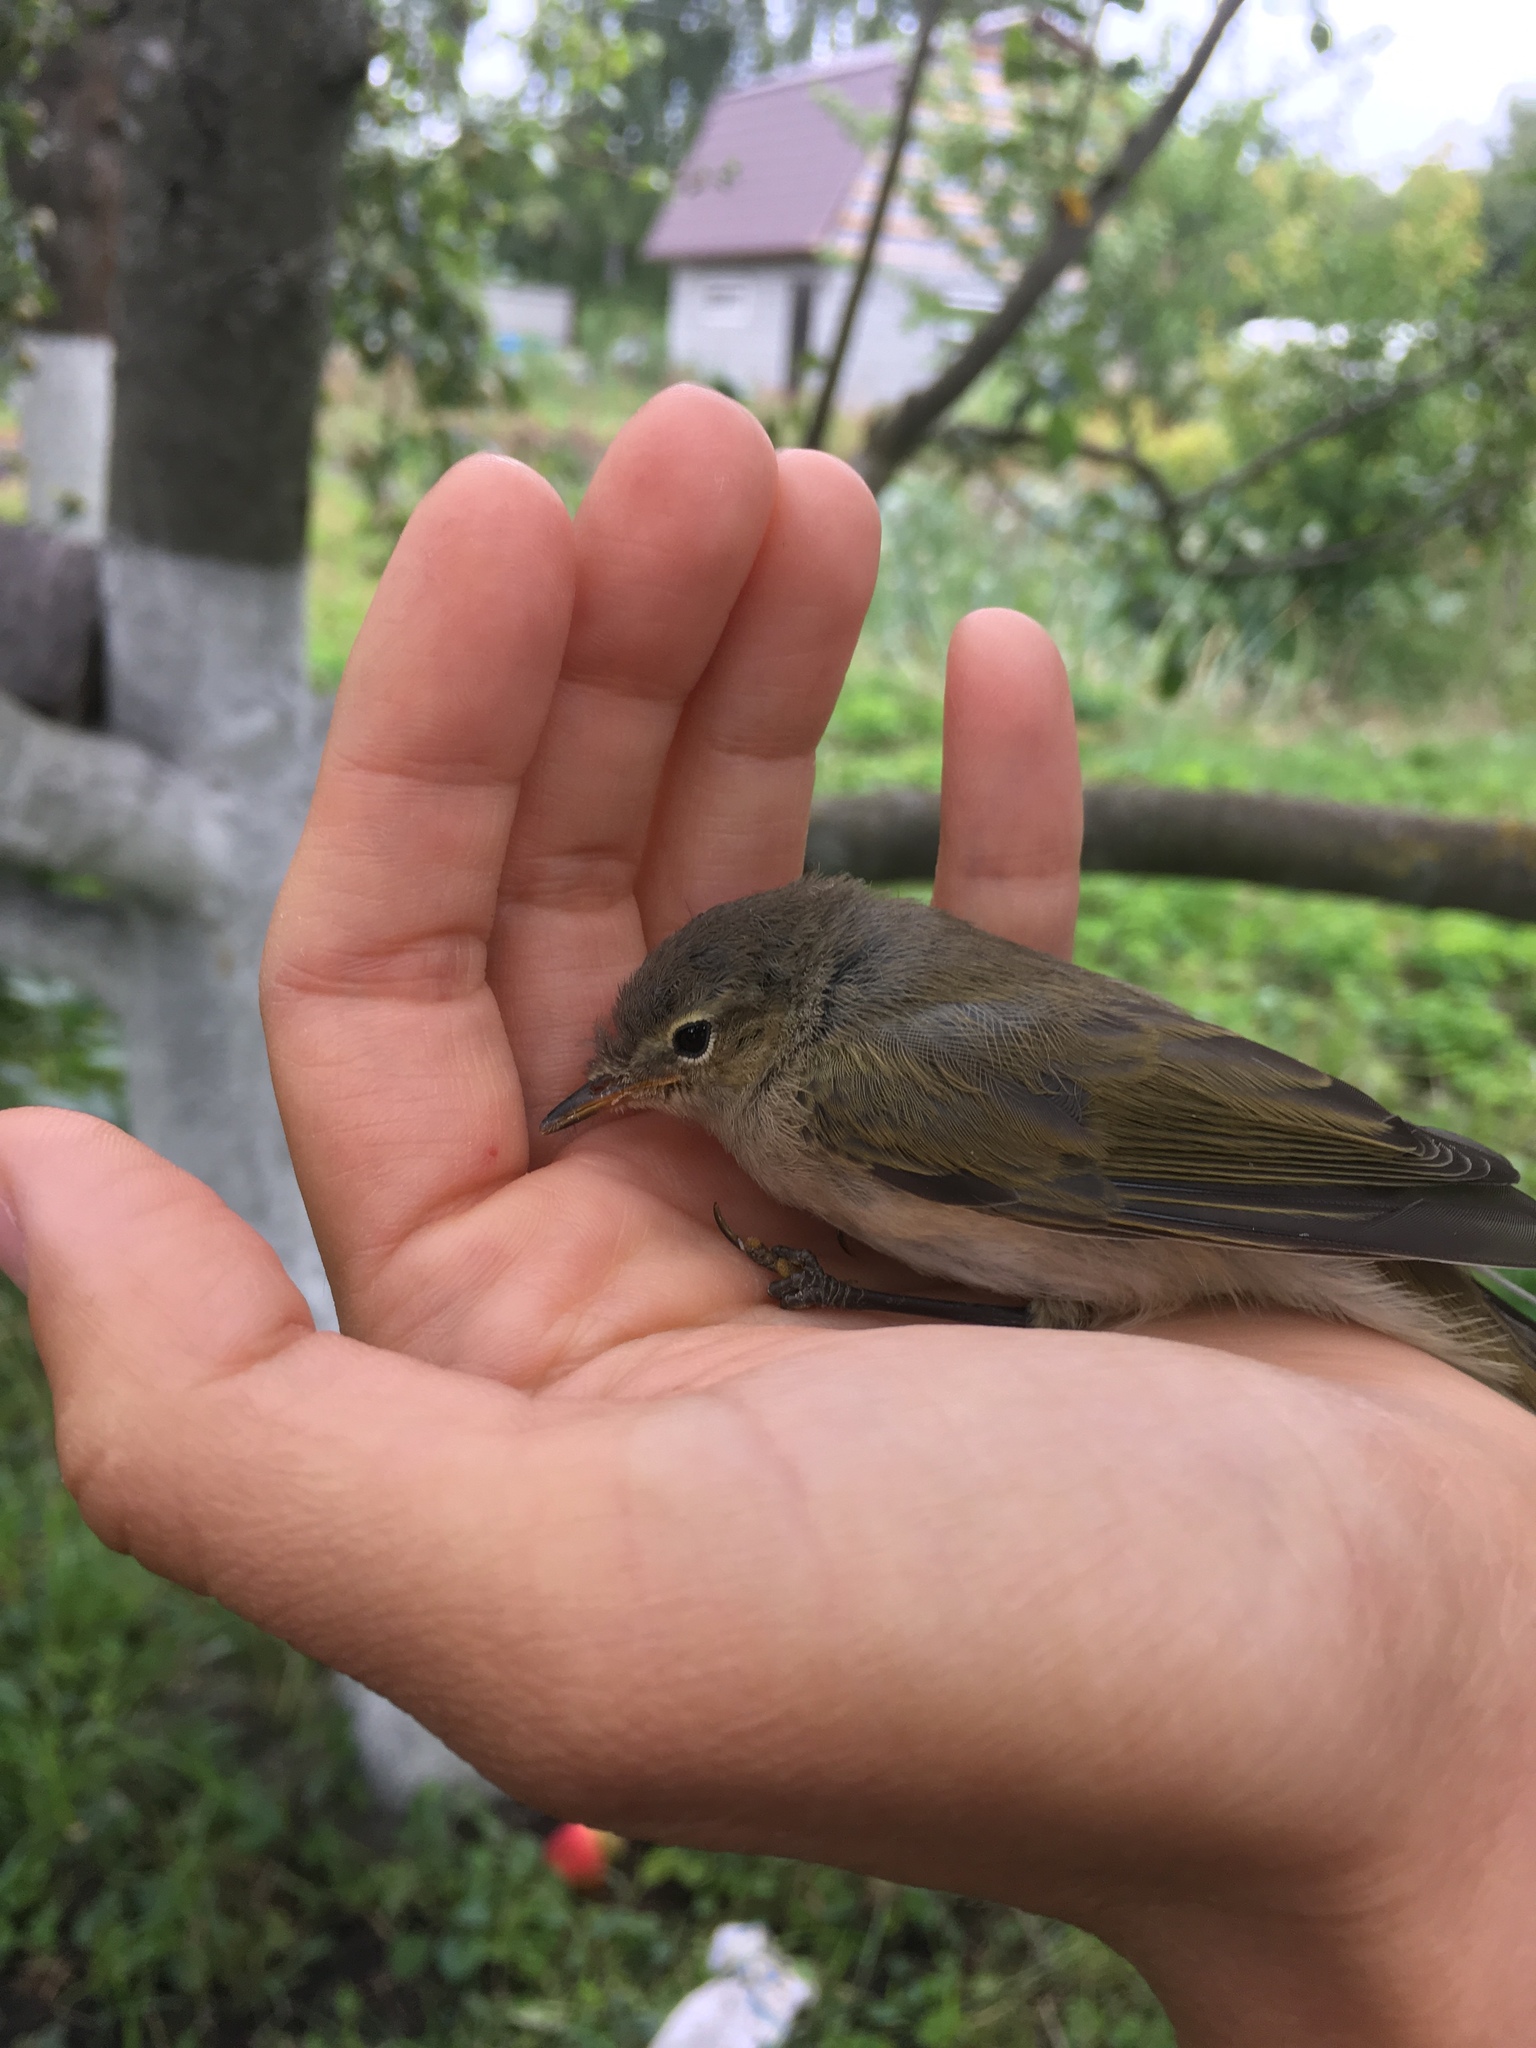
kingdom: Animalia
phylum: Chordata
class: Aves
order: Passeriformes
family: Phylloscopidae
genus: Phylloscopus
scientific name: Phylloscopus collybita
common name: Common chiffchaff
